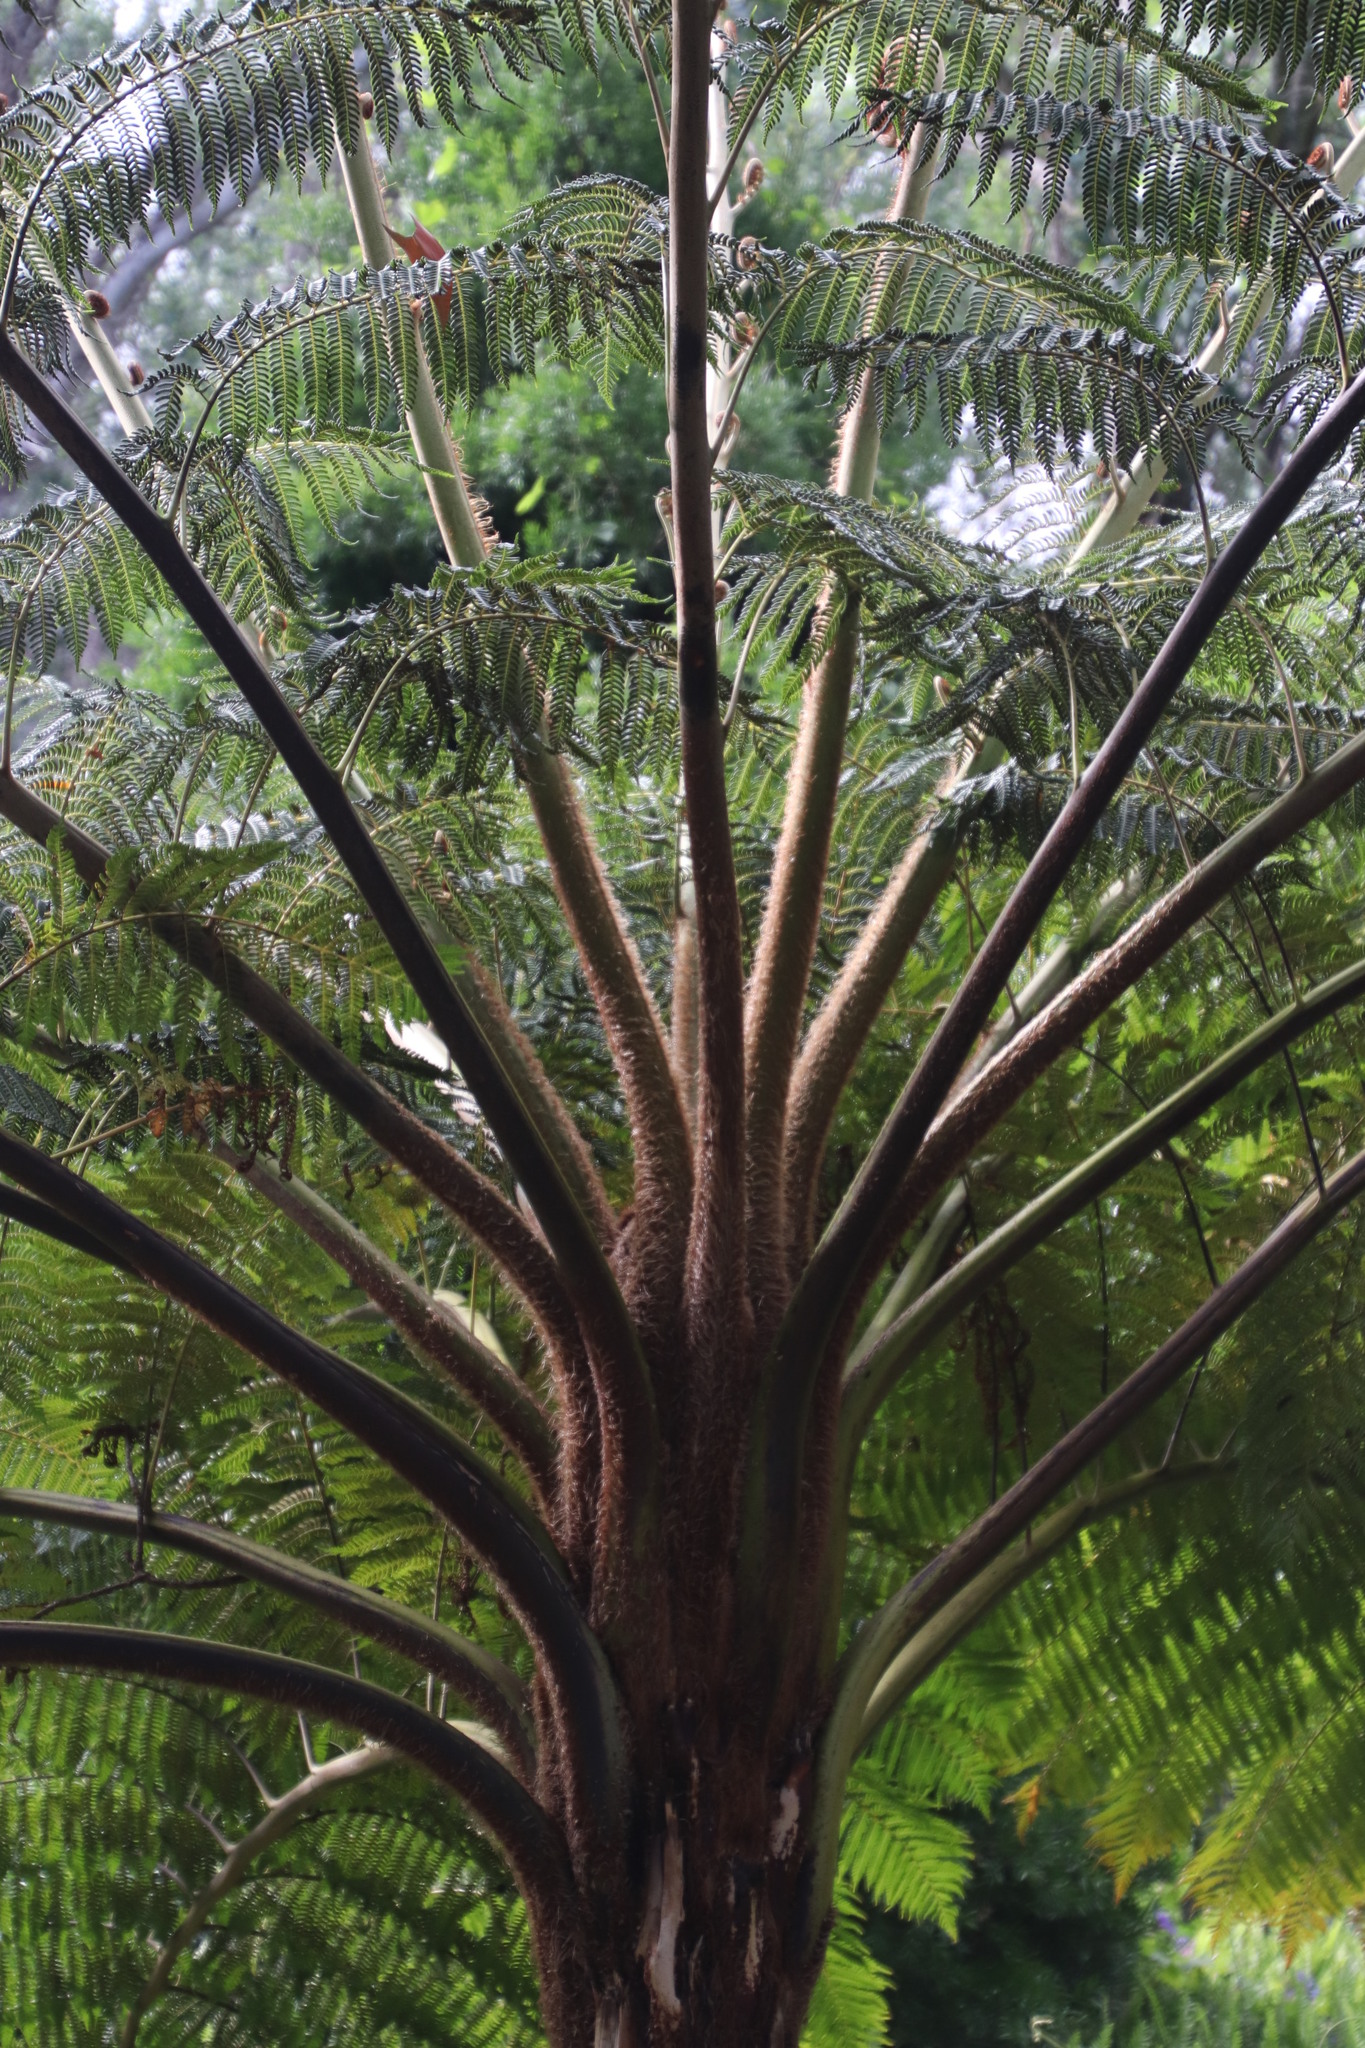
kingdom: Plantae
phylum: Tracheophyta
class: Polypodiopsida
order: Cyatheales
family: Cyatheaceae
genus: Sphaeropteris
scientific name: Sphaeropteris cooperi
